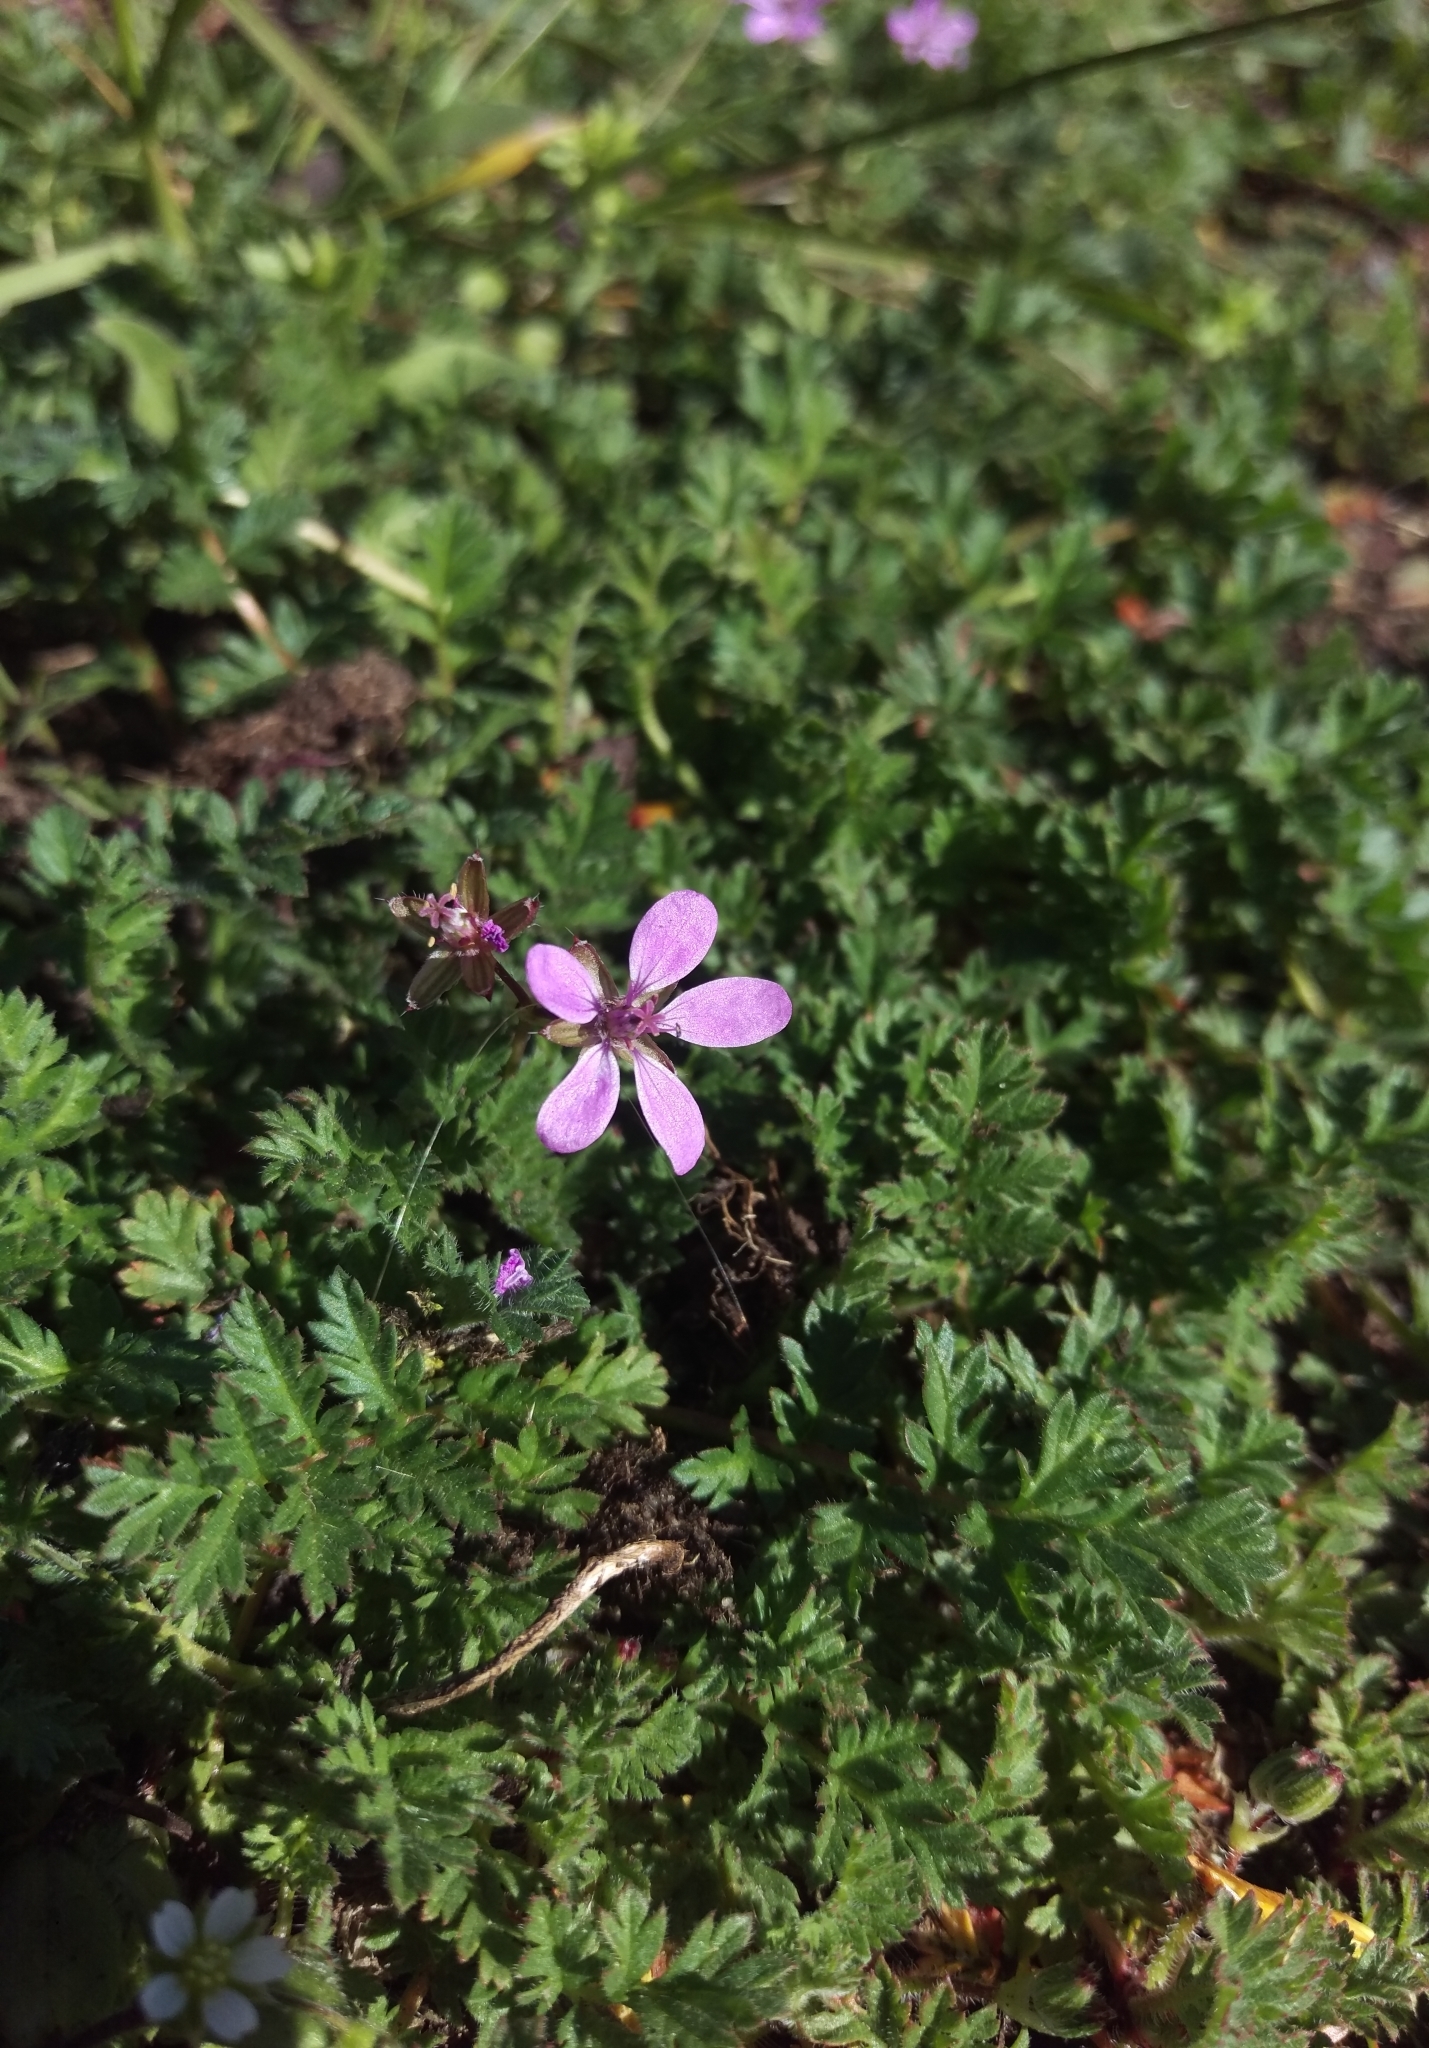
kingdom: Plantae
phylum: Tracheophyta
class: Magnoliopsida
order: Geraniales
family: Geraniaceae
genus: Erodium
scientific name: Erodium cicutarium
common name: Common stork's-bill
